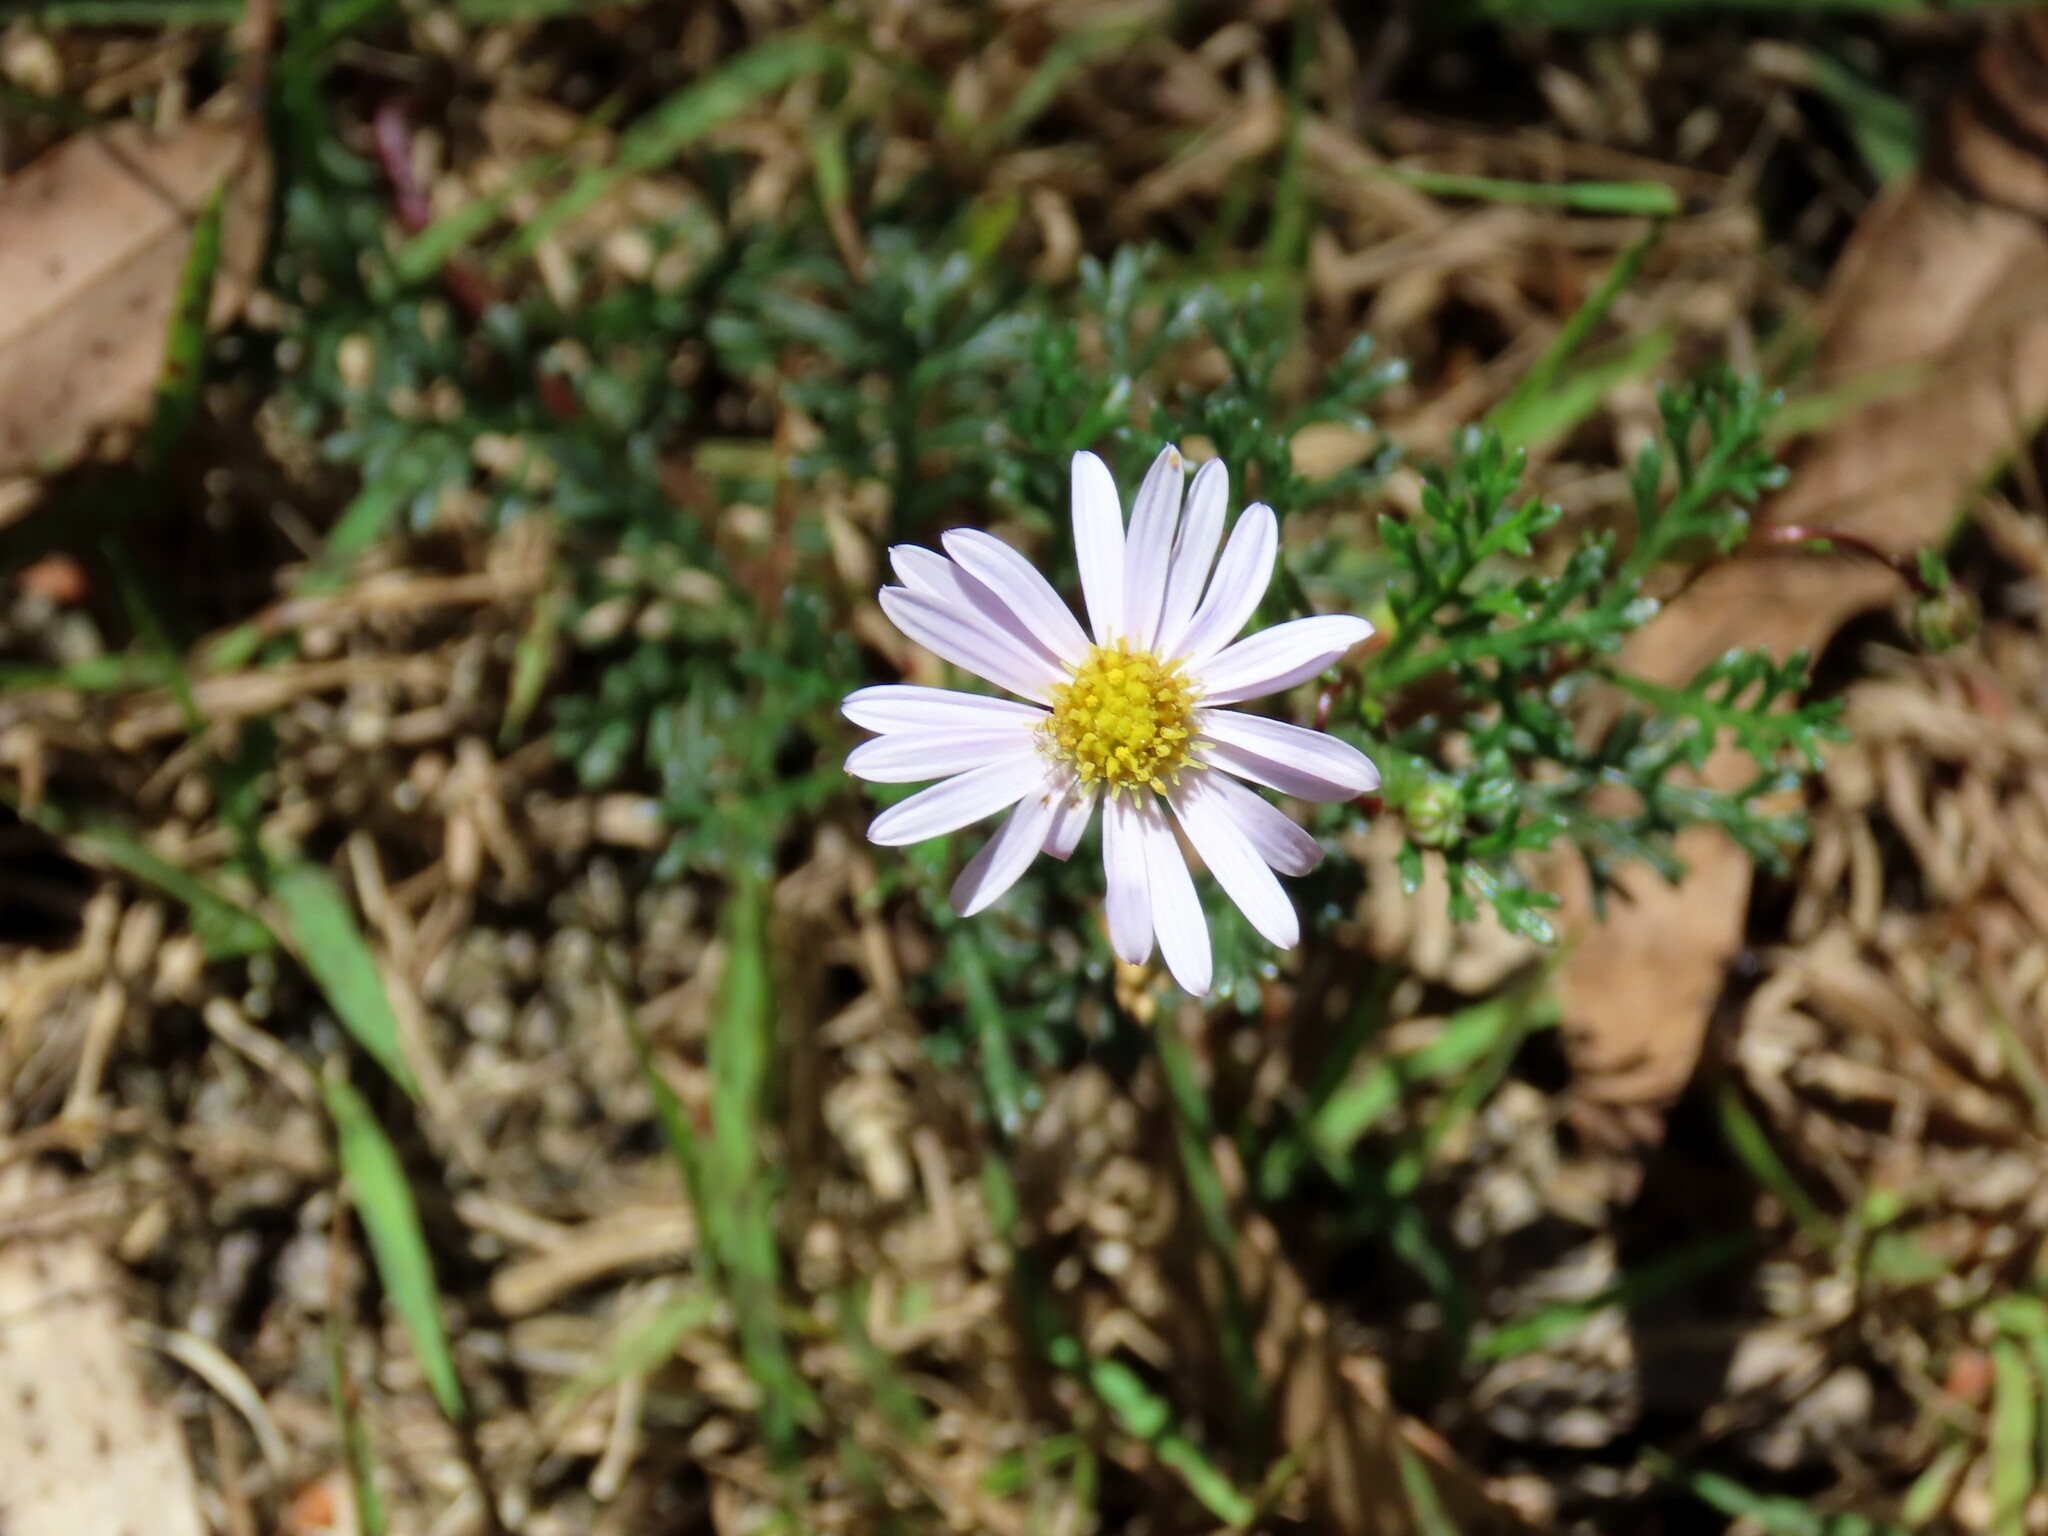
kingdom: Plantae
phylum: Tracheophyta
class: Magnoliopsida
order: Asterales
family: Asteraceae
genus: Brachyscome
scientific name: Brachyscome multifida
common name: Cut-leaf daisy
